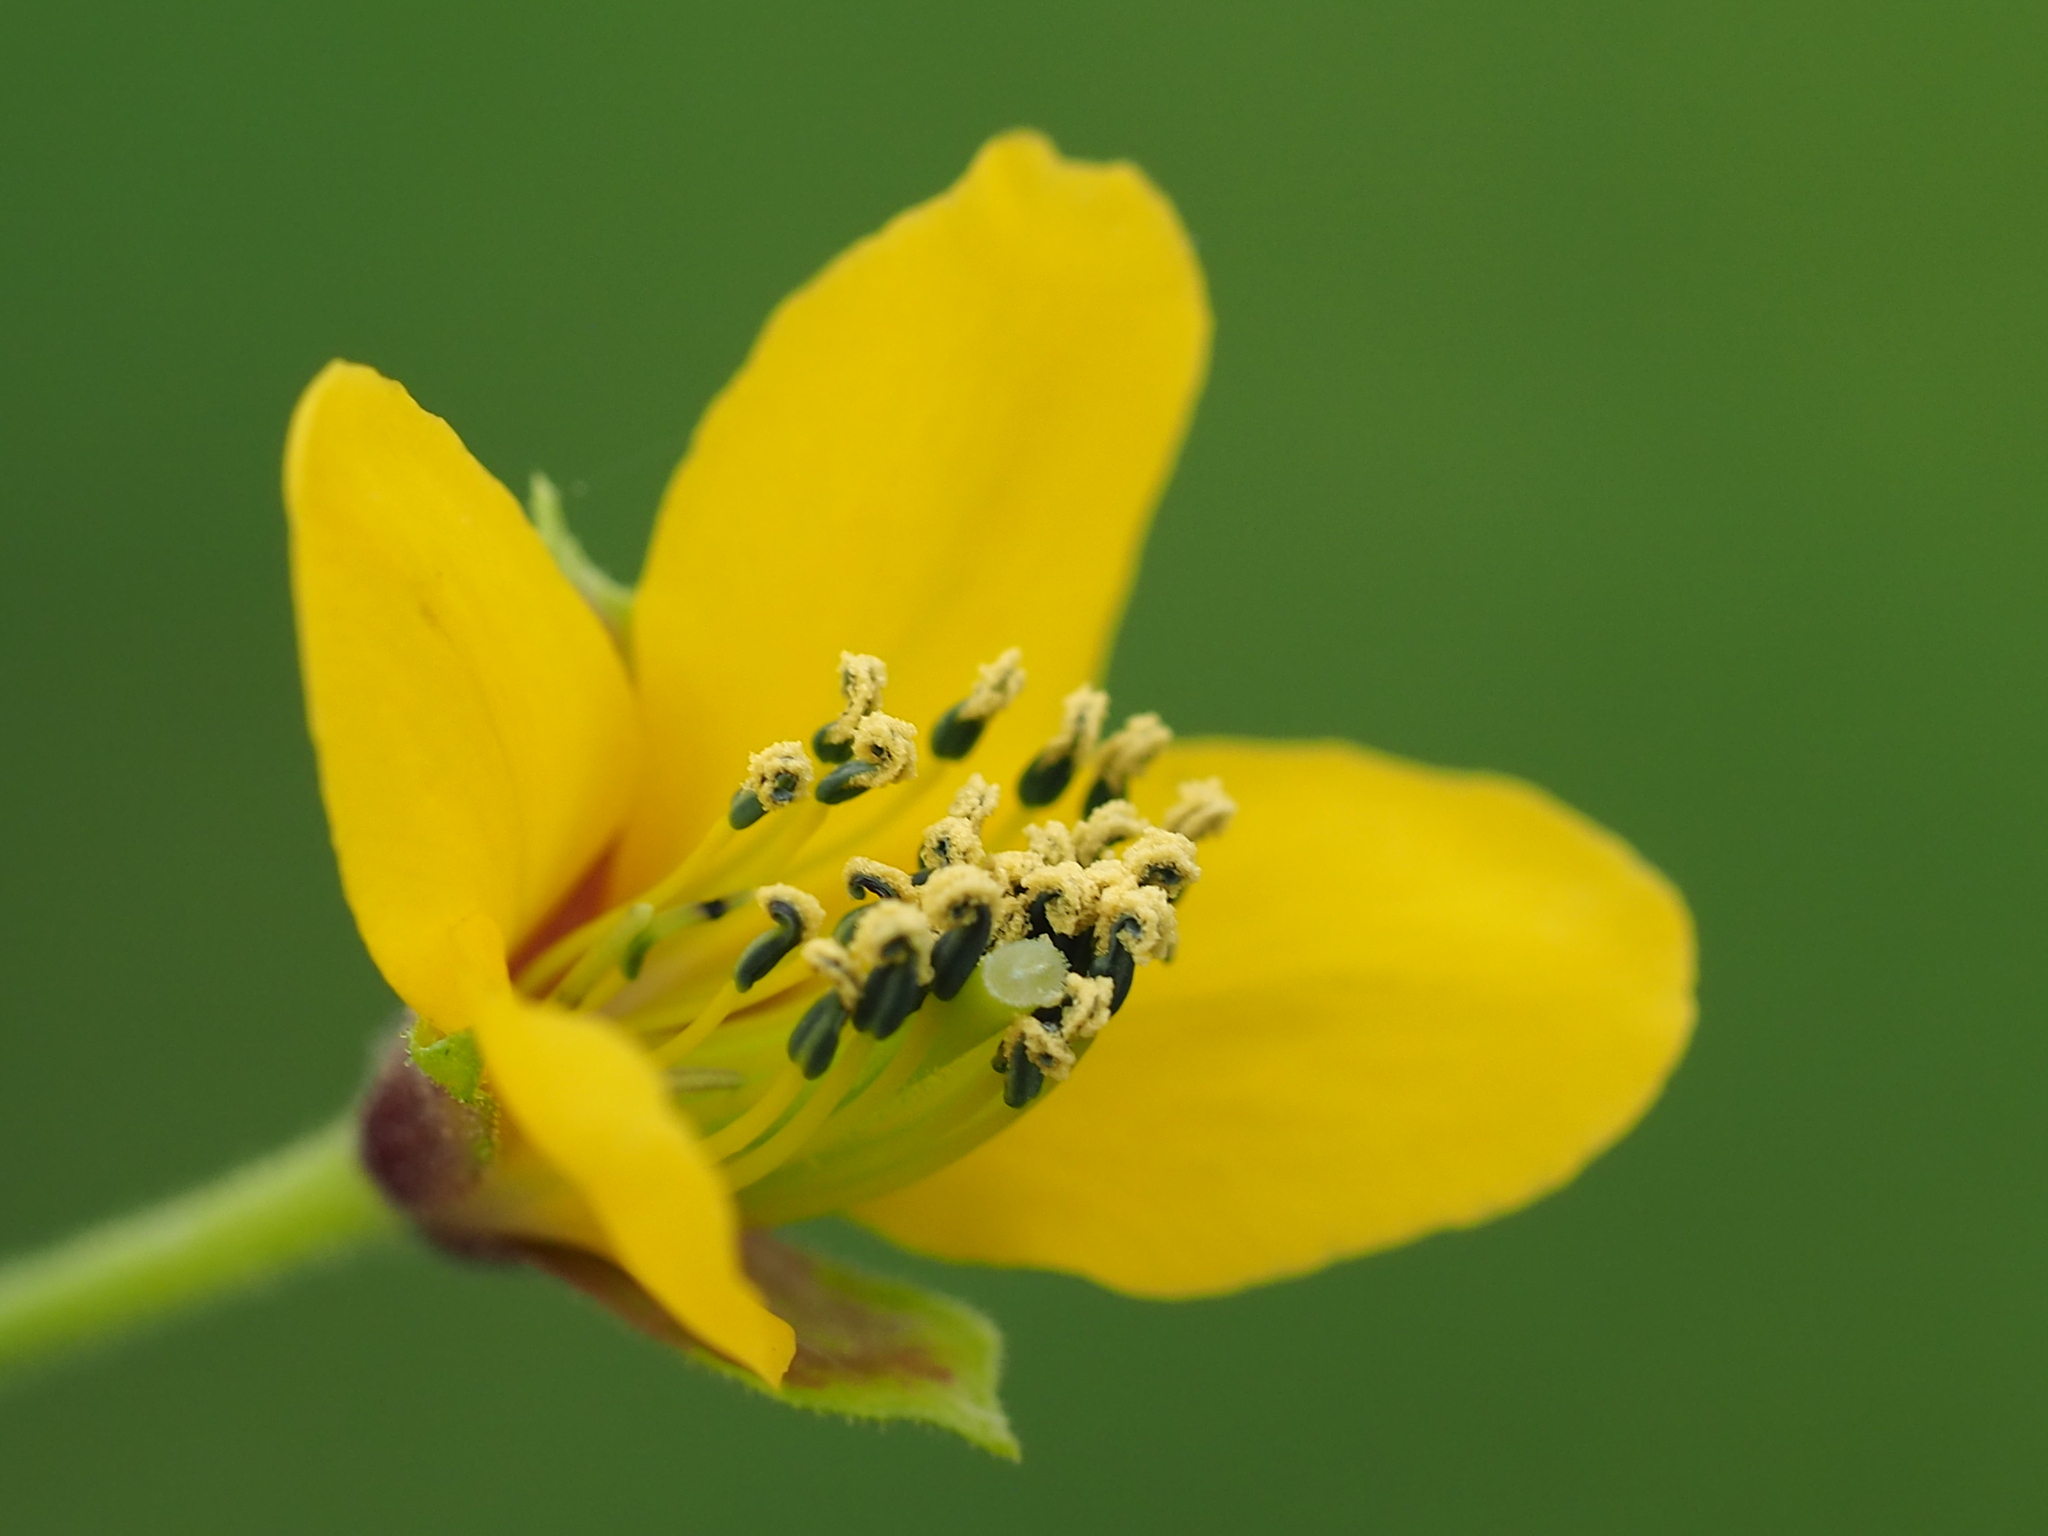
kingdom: Plantae
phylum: Tracheophyta
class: Magnoliopsida
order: Brassicales
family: Cleomaceae
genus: Arivela
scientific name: Arivela viscosa
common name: Asian spiderflower
